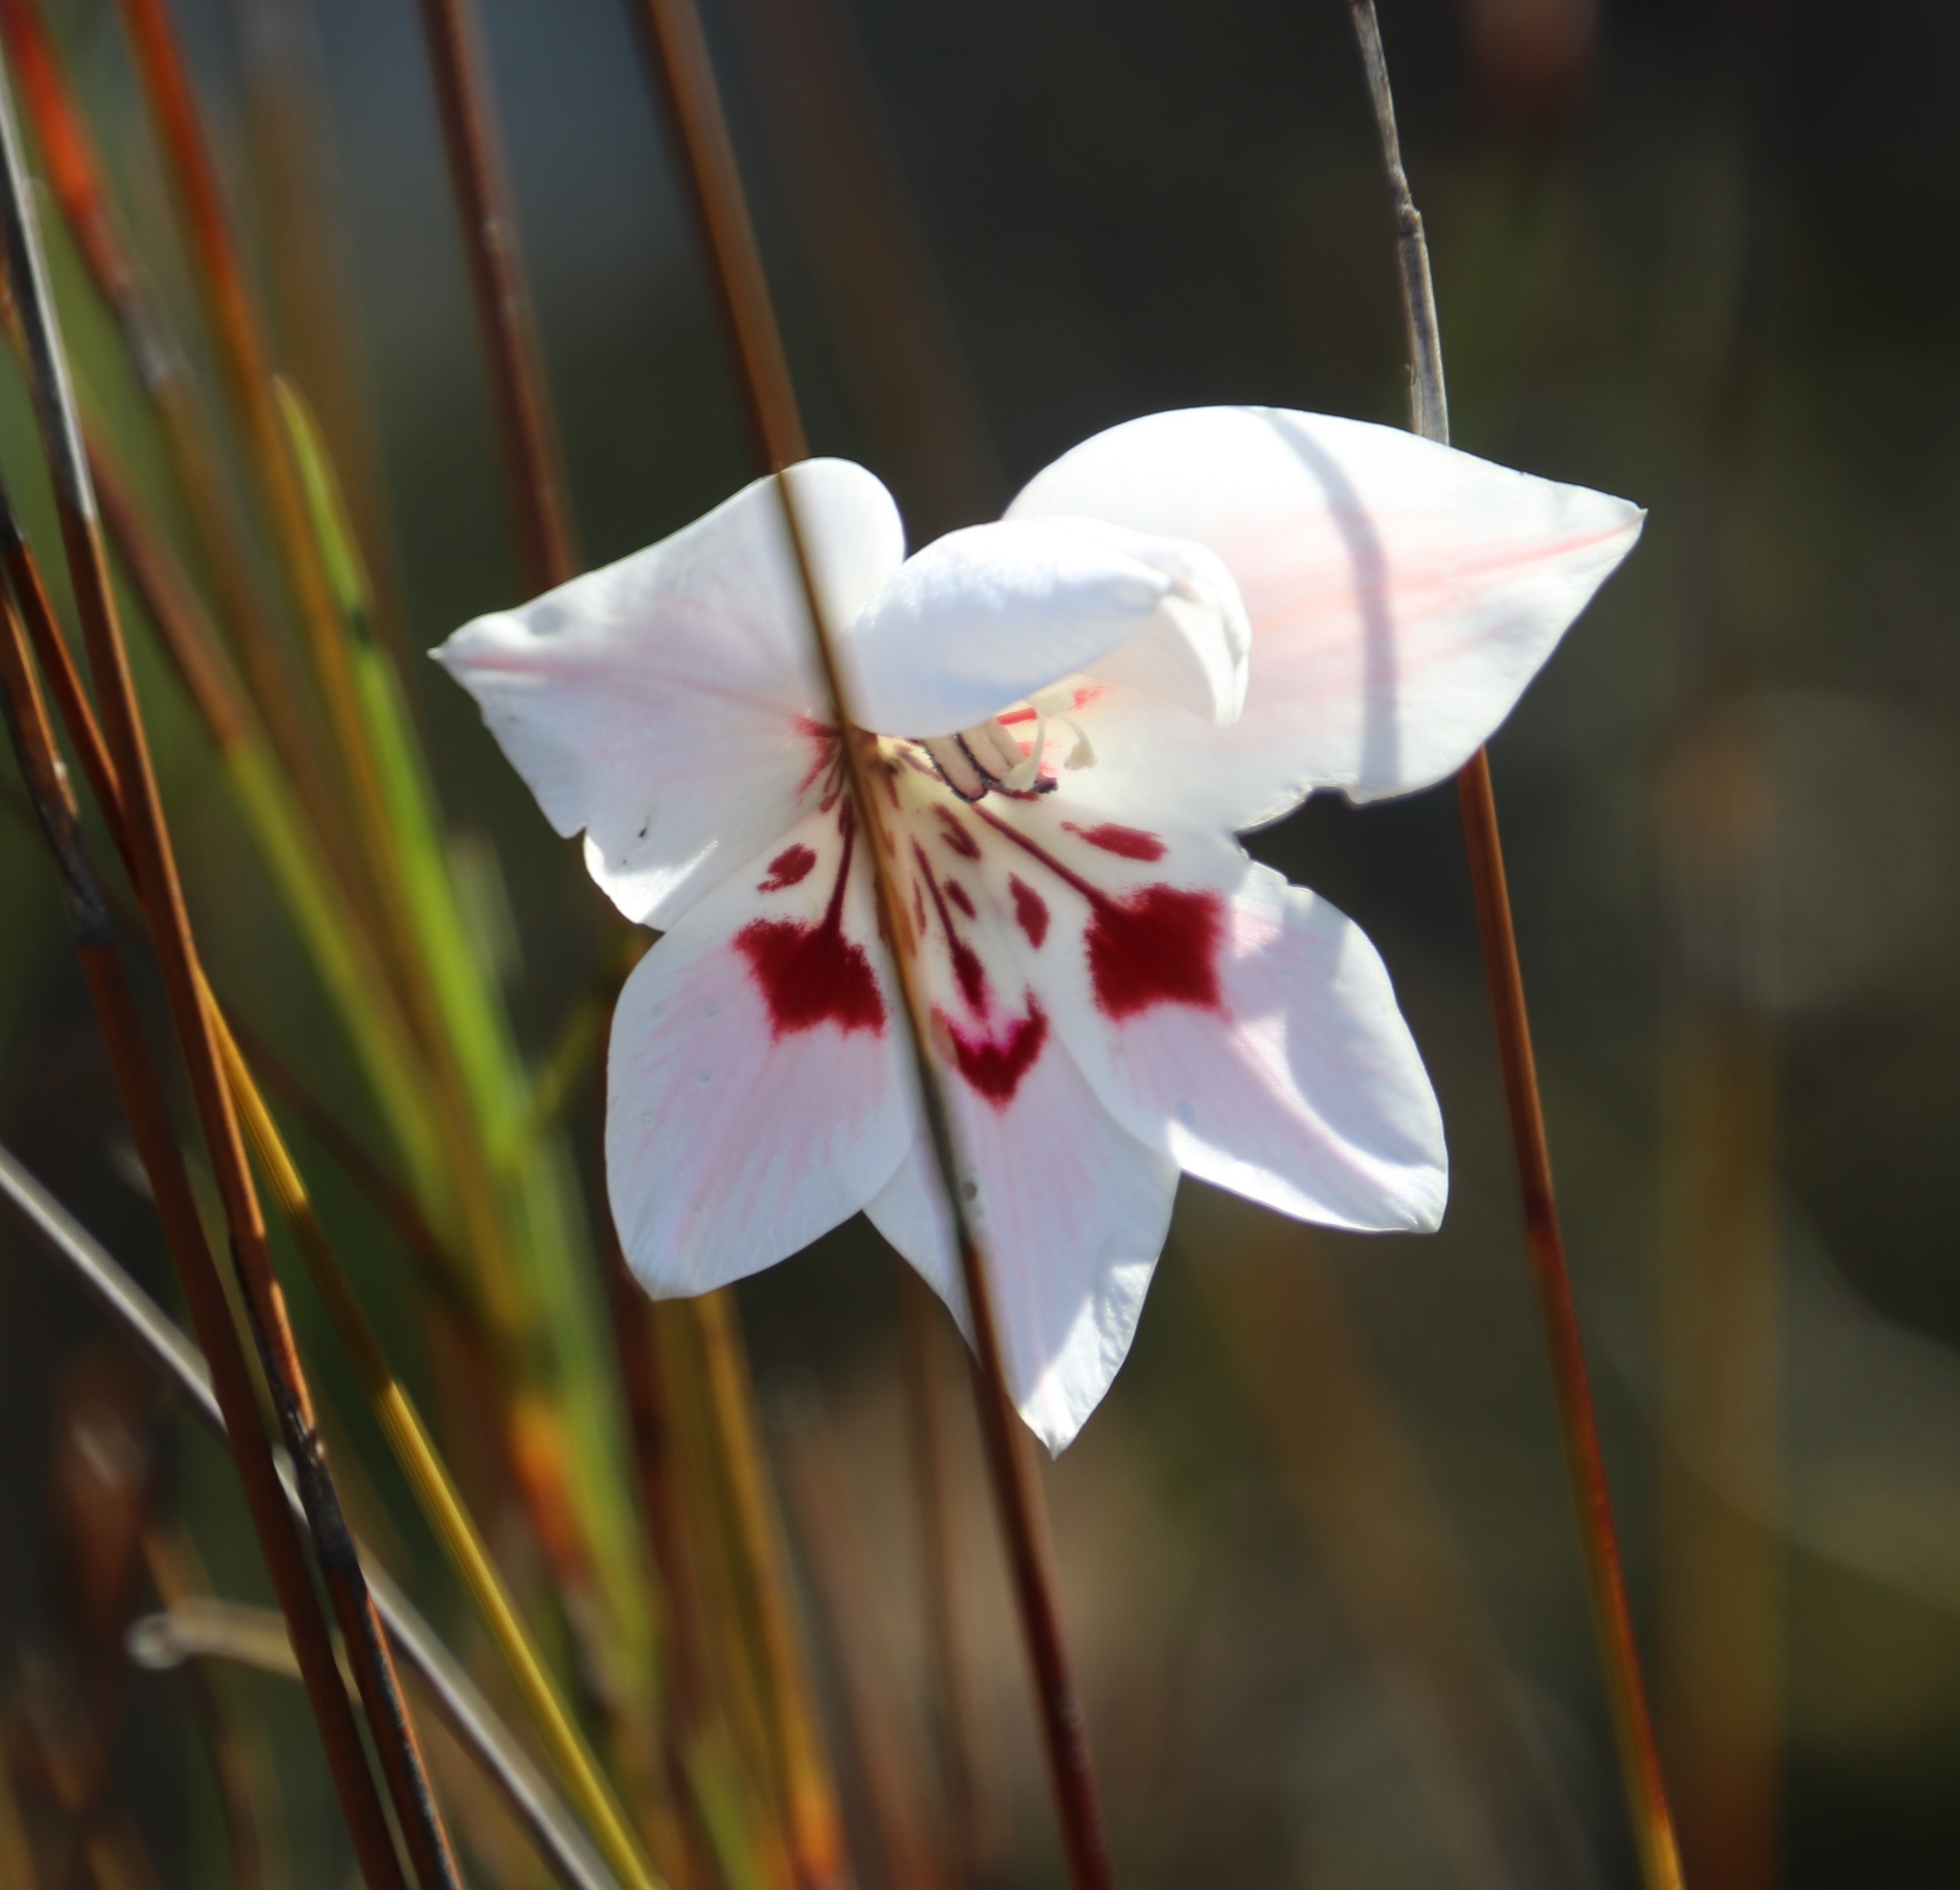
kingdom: Plantae
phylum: Tracheophyta
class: Liliopsida
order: Asparagales
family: Iridaceae
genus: Gladiolus
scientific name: Gladiolus debilis
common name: Painted-lady
